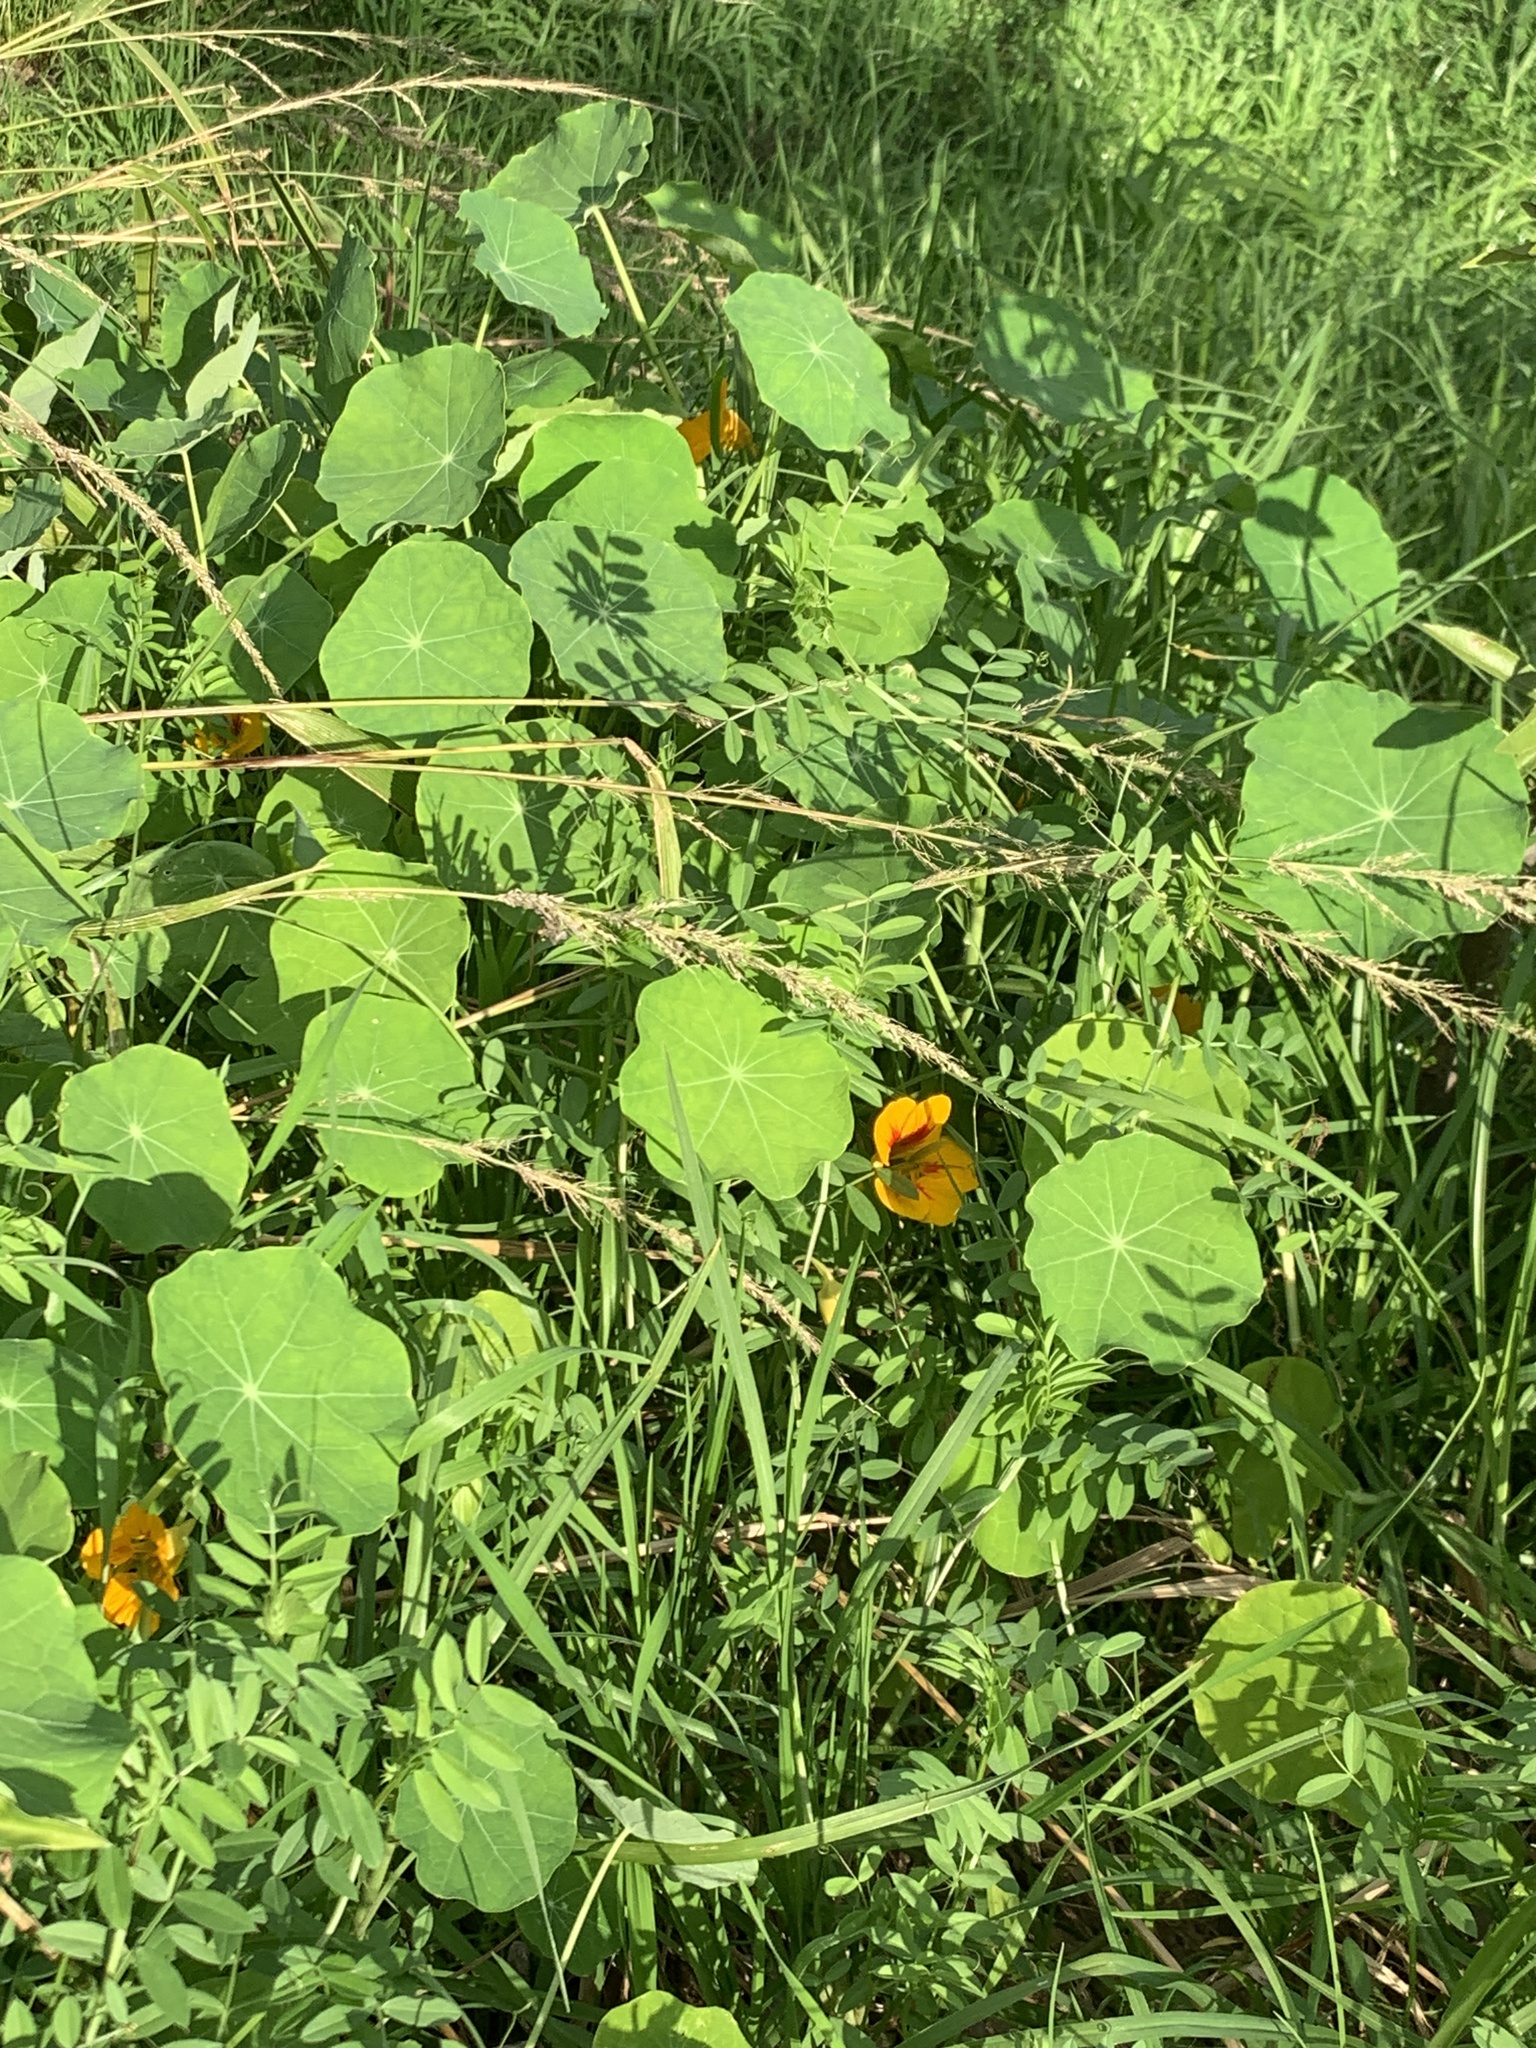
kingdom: Plantae
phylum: Tracheophyta
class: Magnoliopsida
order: Brassicales
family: Tropaeolaceae
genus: Tropaeolum
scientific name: Tropaeolum majus
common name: Nasturtium
